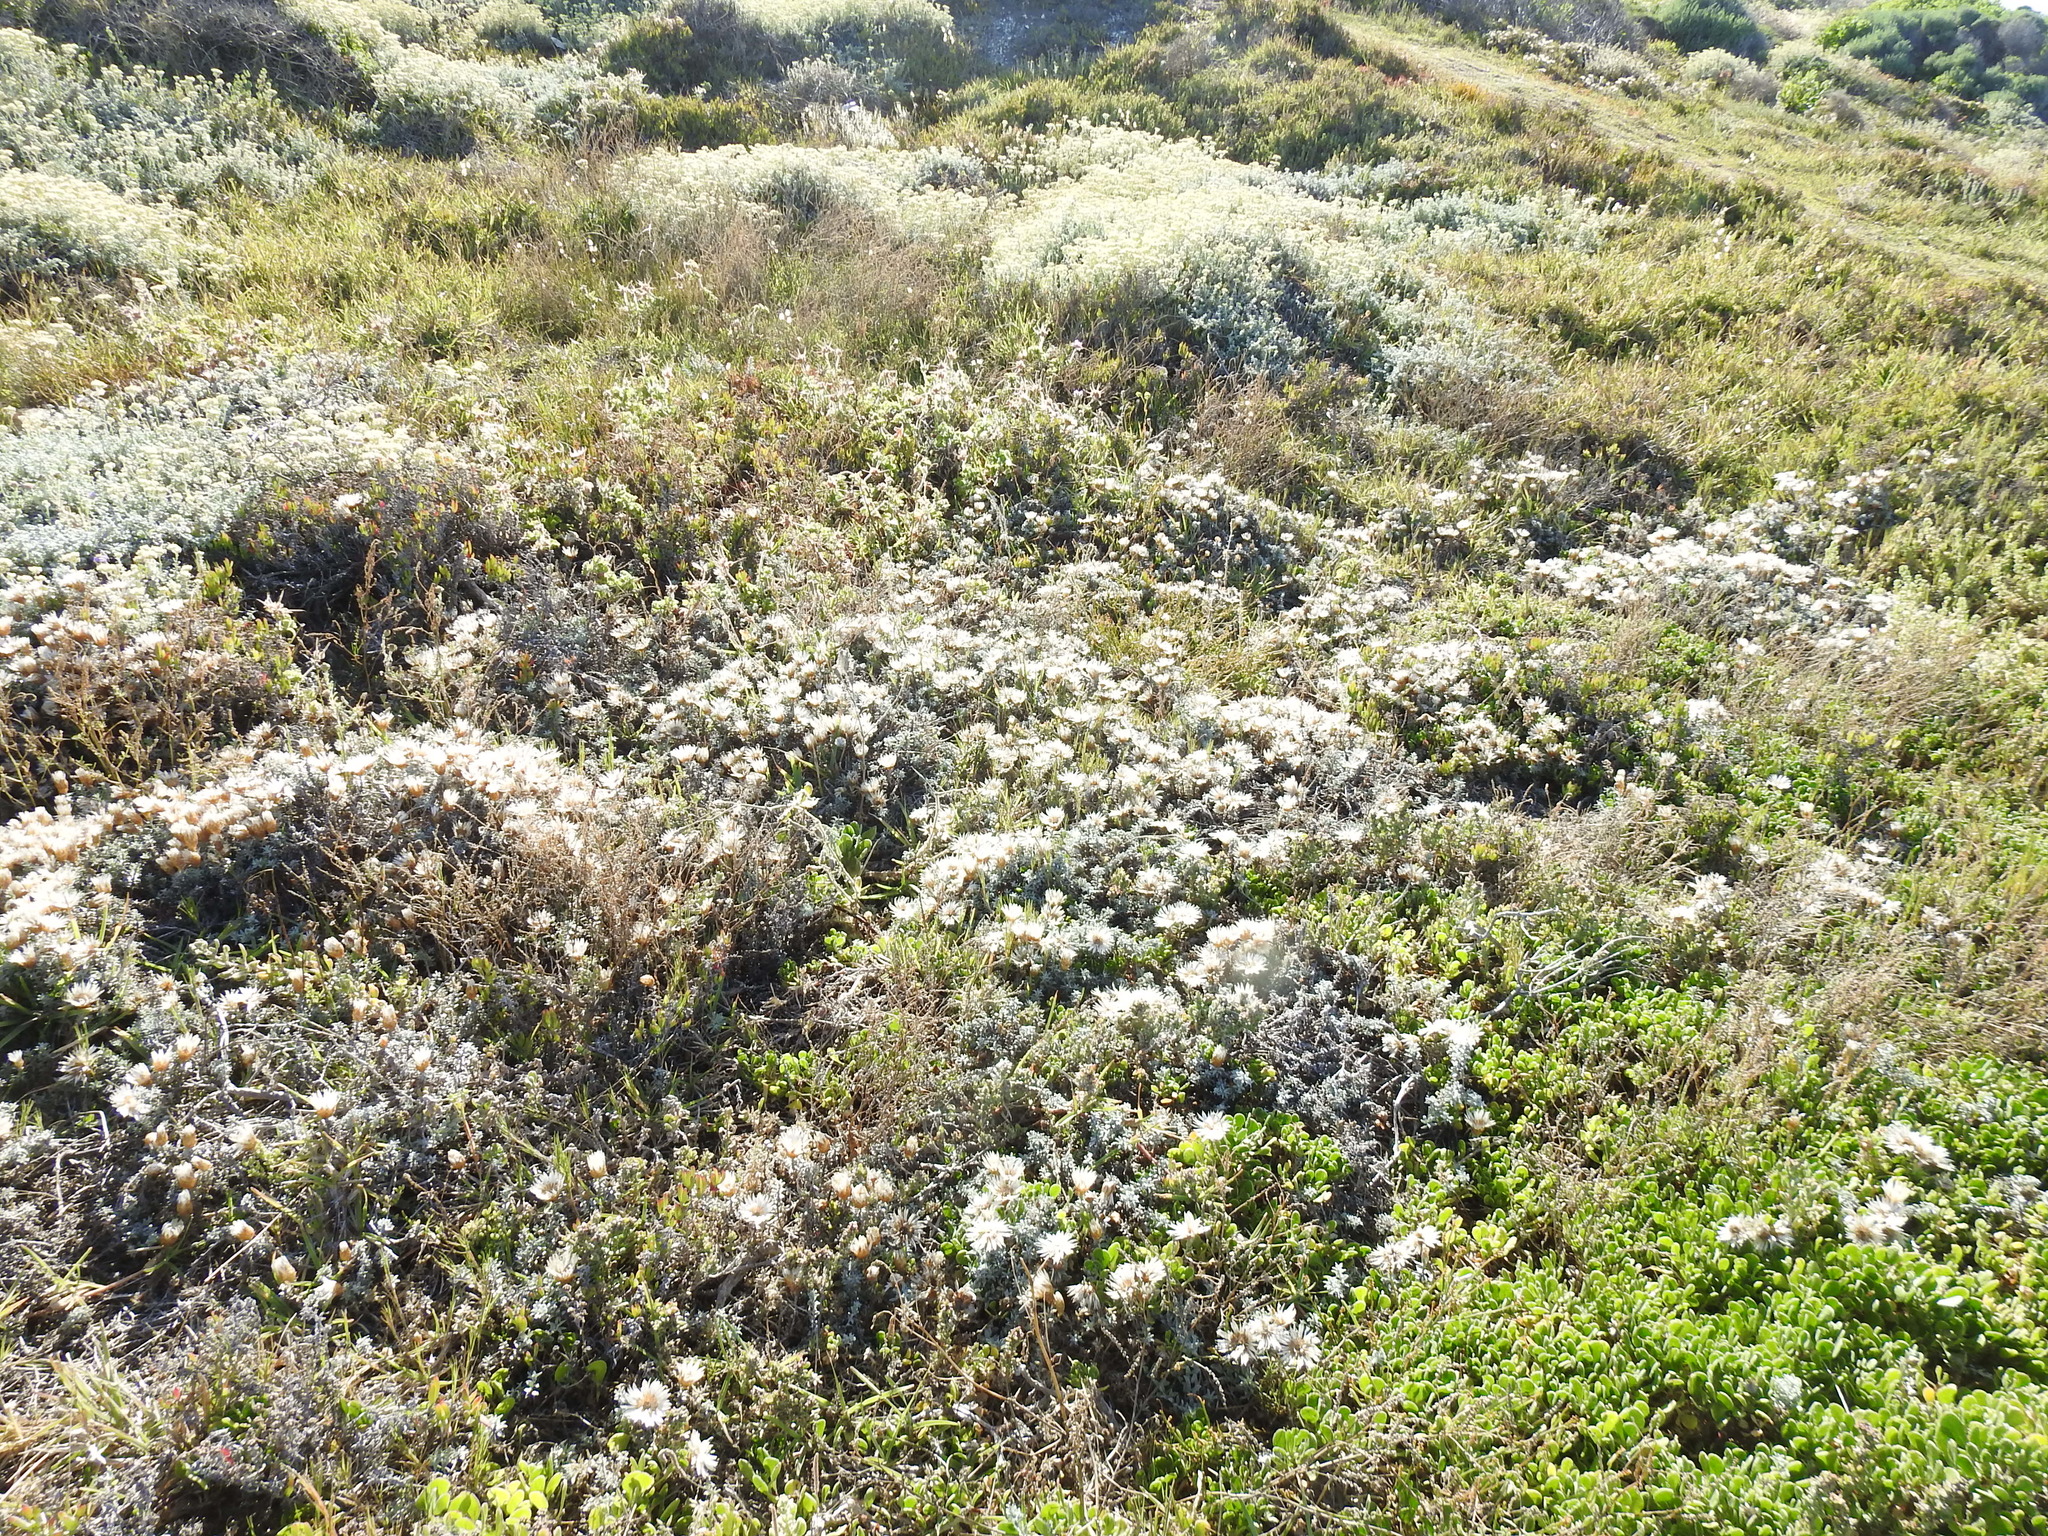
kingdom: Plantae
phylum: Tracheophyta
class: Magnoliopsida
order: Asterales
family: Asteraceae
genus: Helichrysum
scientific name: Helichrysum retortum
